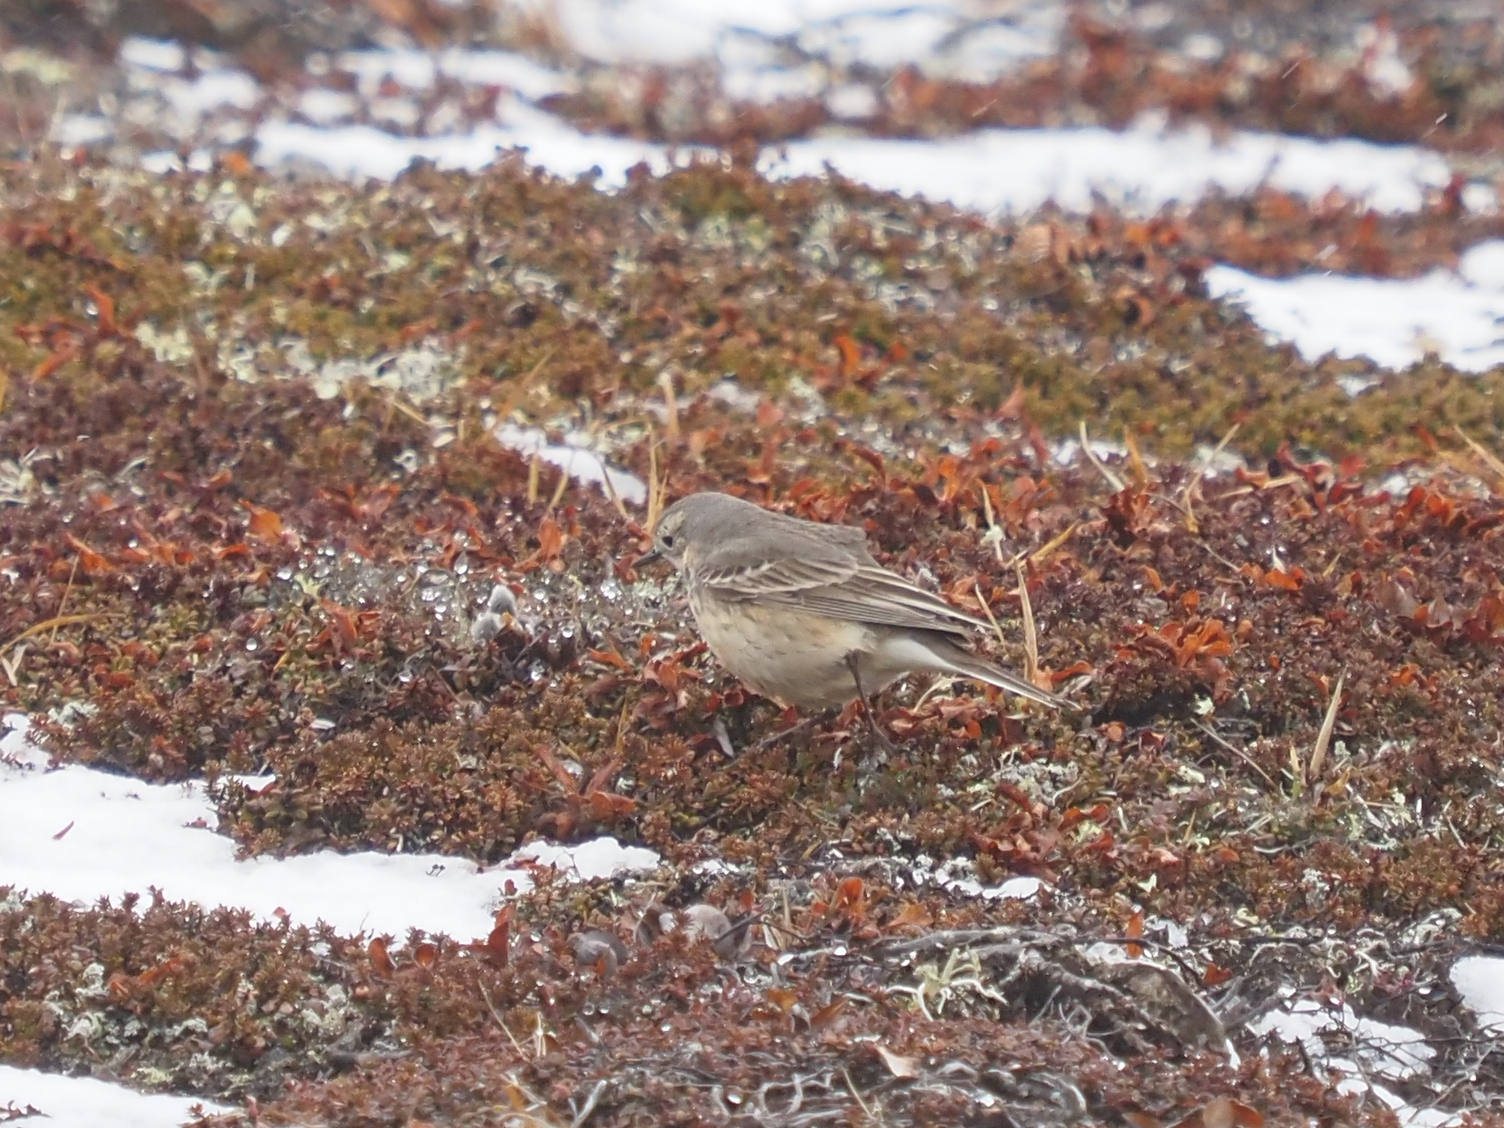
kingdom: Animalia
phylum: Chordata
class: Aves
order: Passeriformes
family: Motacillidae
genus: Anthus
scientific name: Anthus rubescens
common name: Buff-bellied pipit
